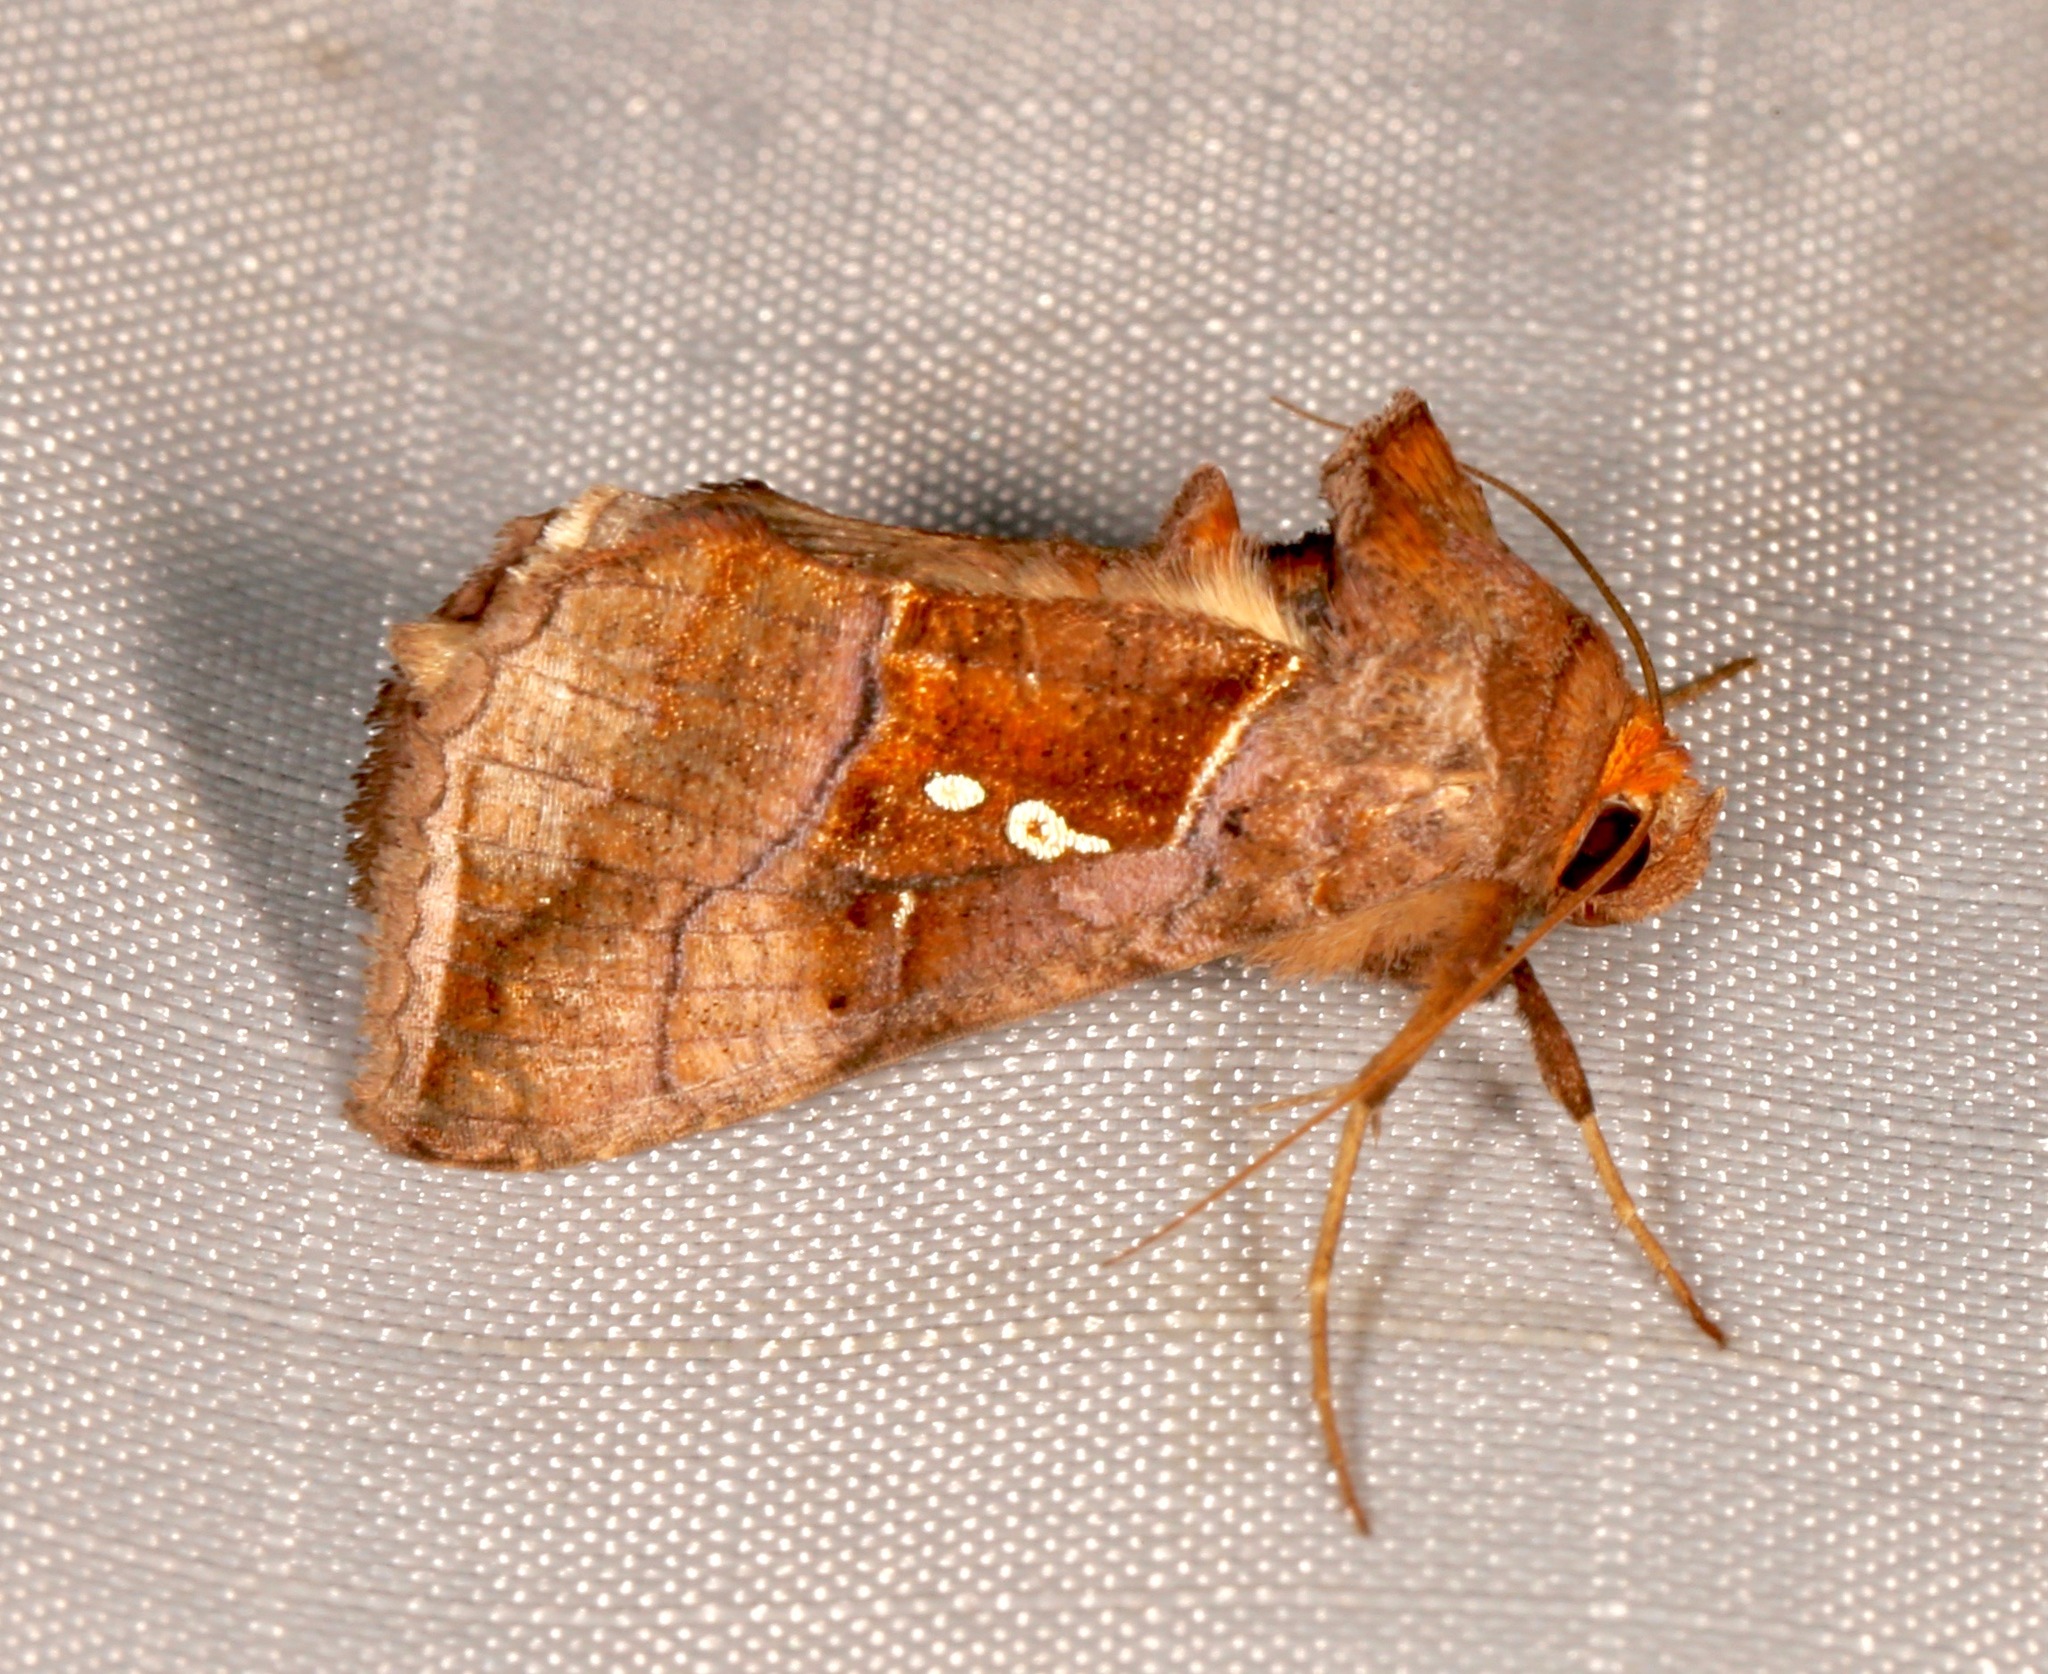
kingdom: Animalia
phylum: Arthropoda
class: Insecta
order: Lepidoptera
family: Noctuidae
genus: Enigmogramma
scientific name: Enigmogramma basigera
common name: Pink-washed looper moth
